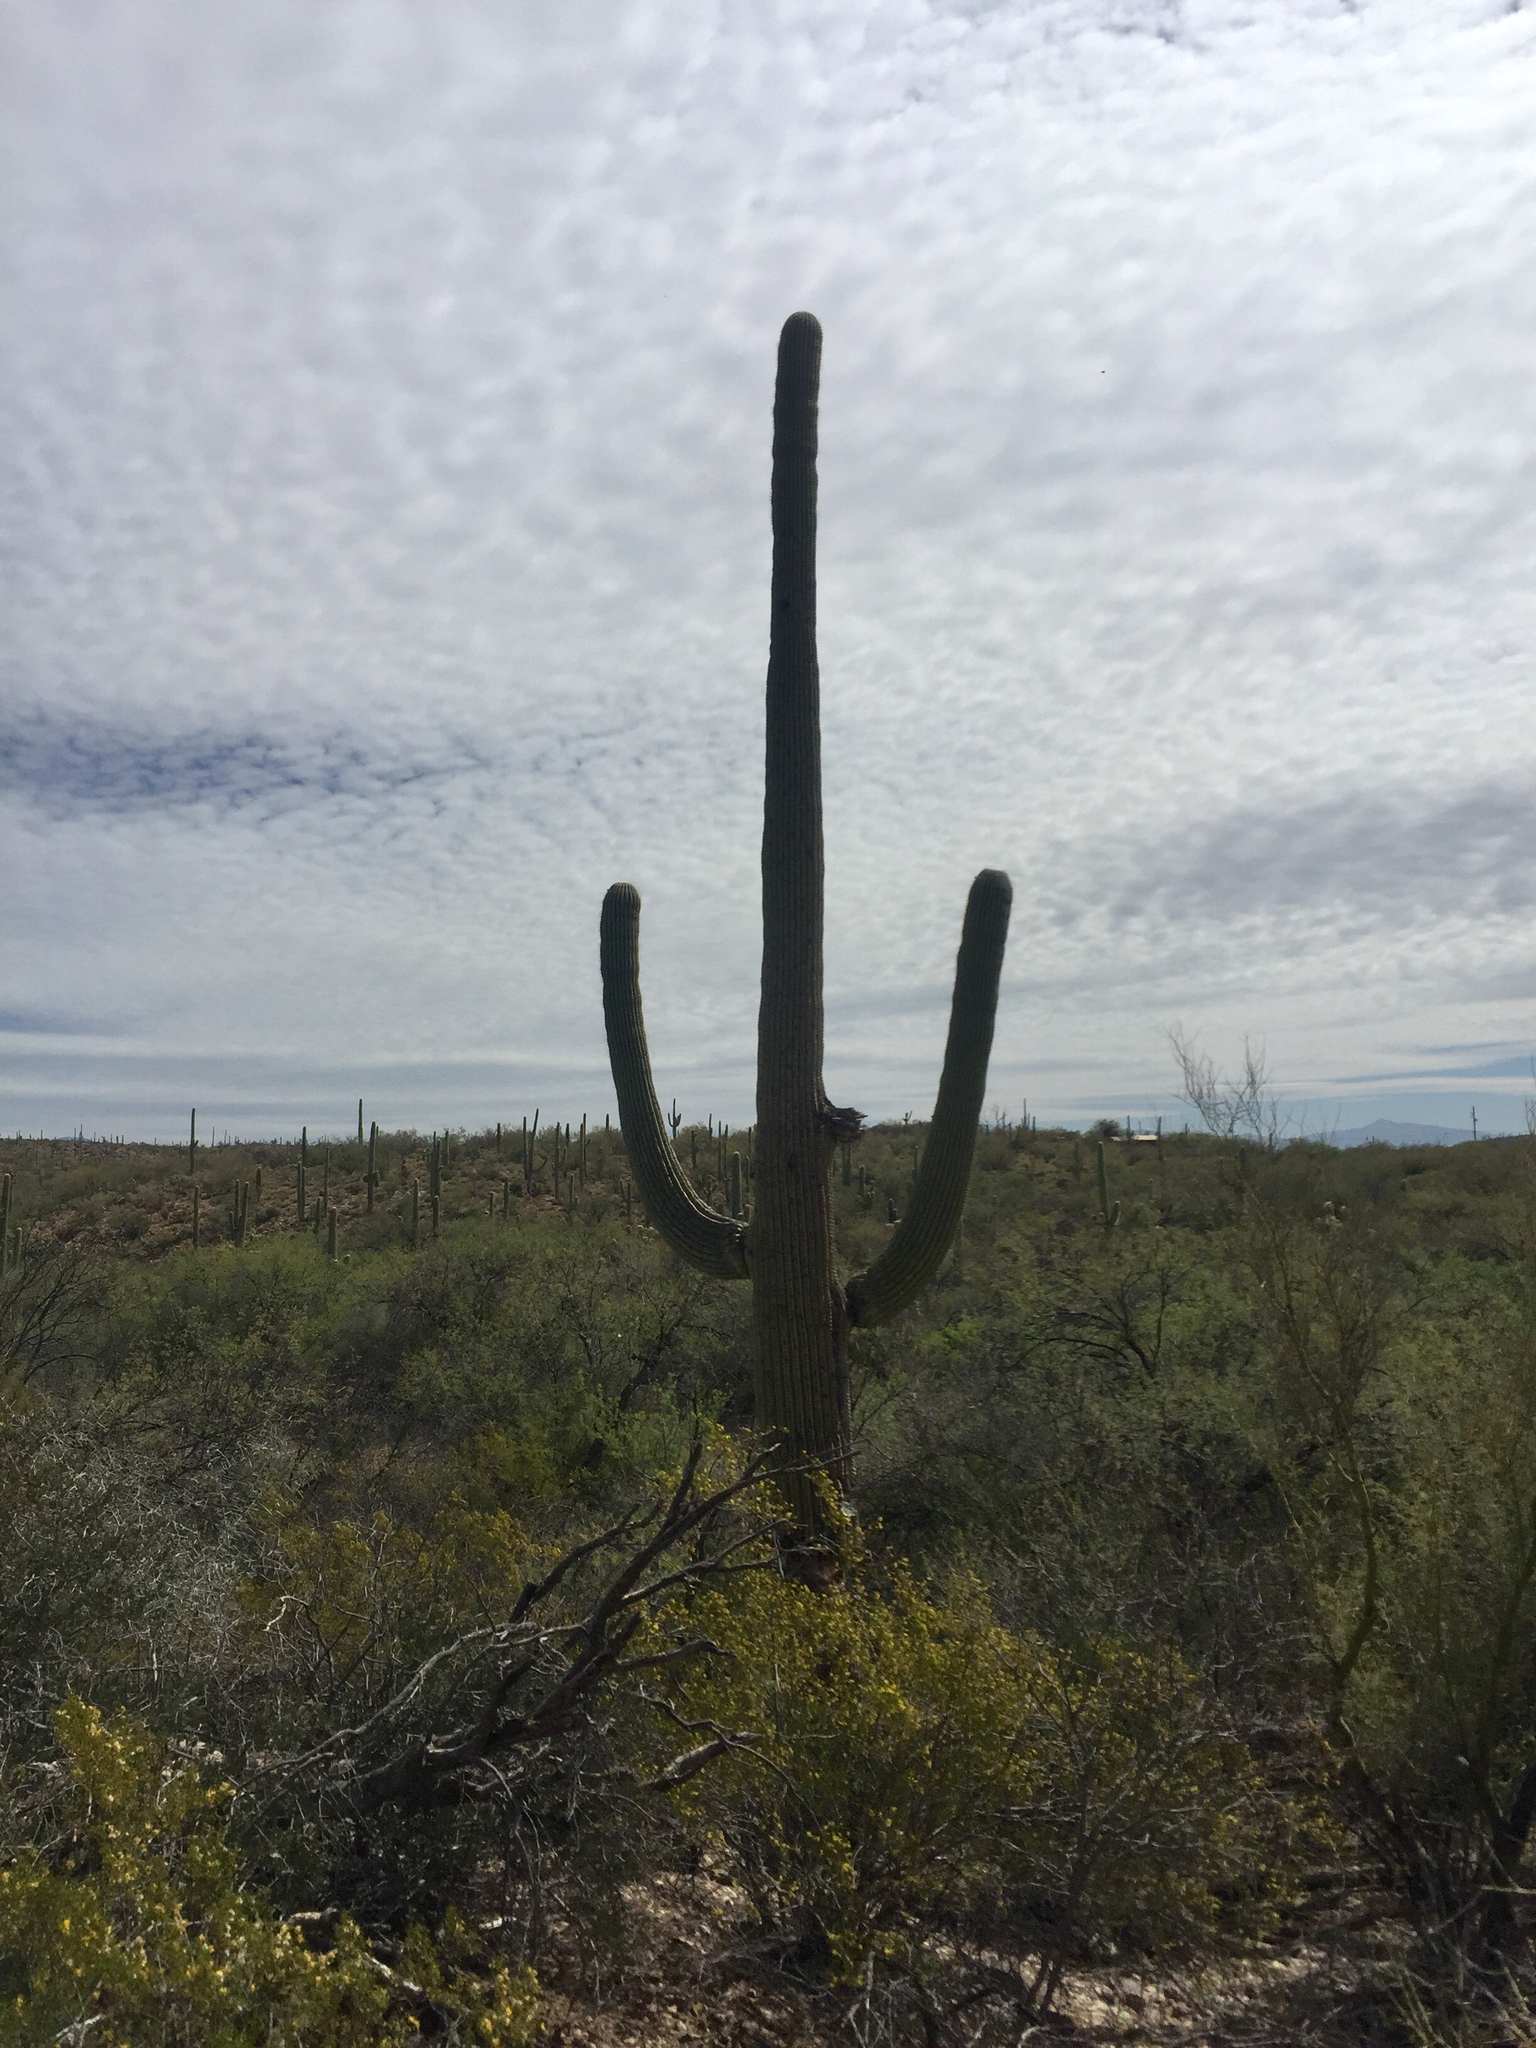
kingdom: Plantae
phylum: Tracheophyta
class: Magnoliopsida
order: Caryophyllales
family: Cactaceae
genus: Carnegiea
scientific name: Carnegiea gigantea
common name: Saguaro
